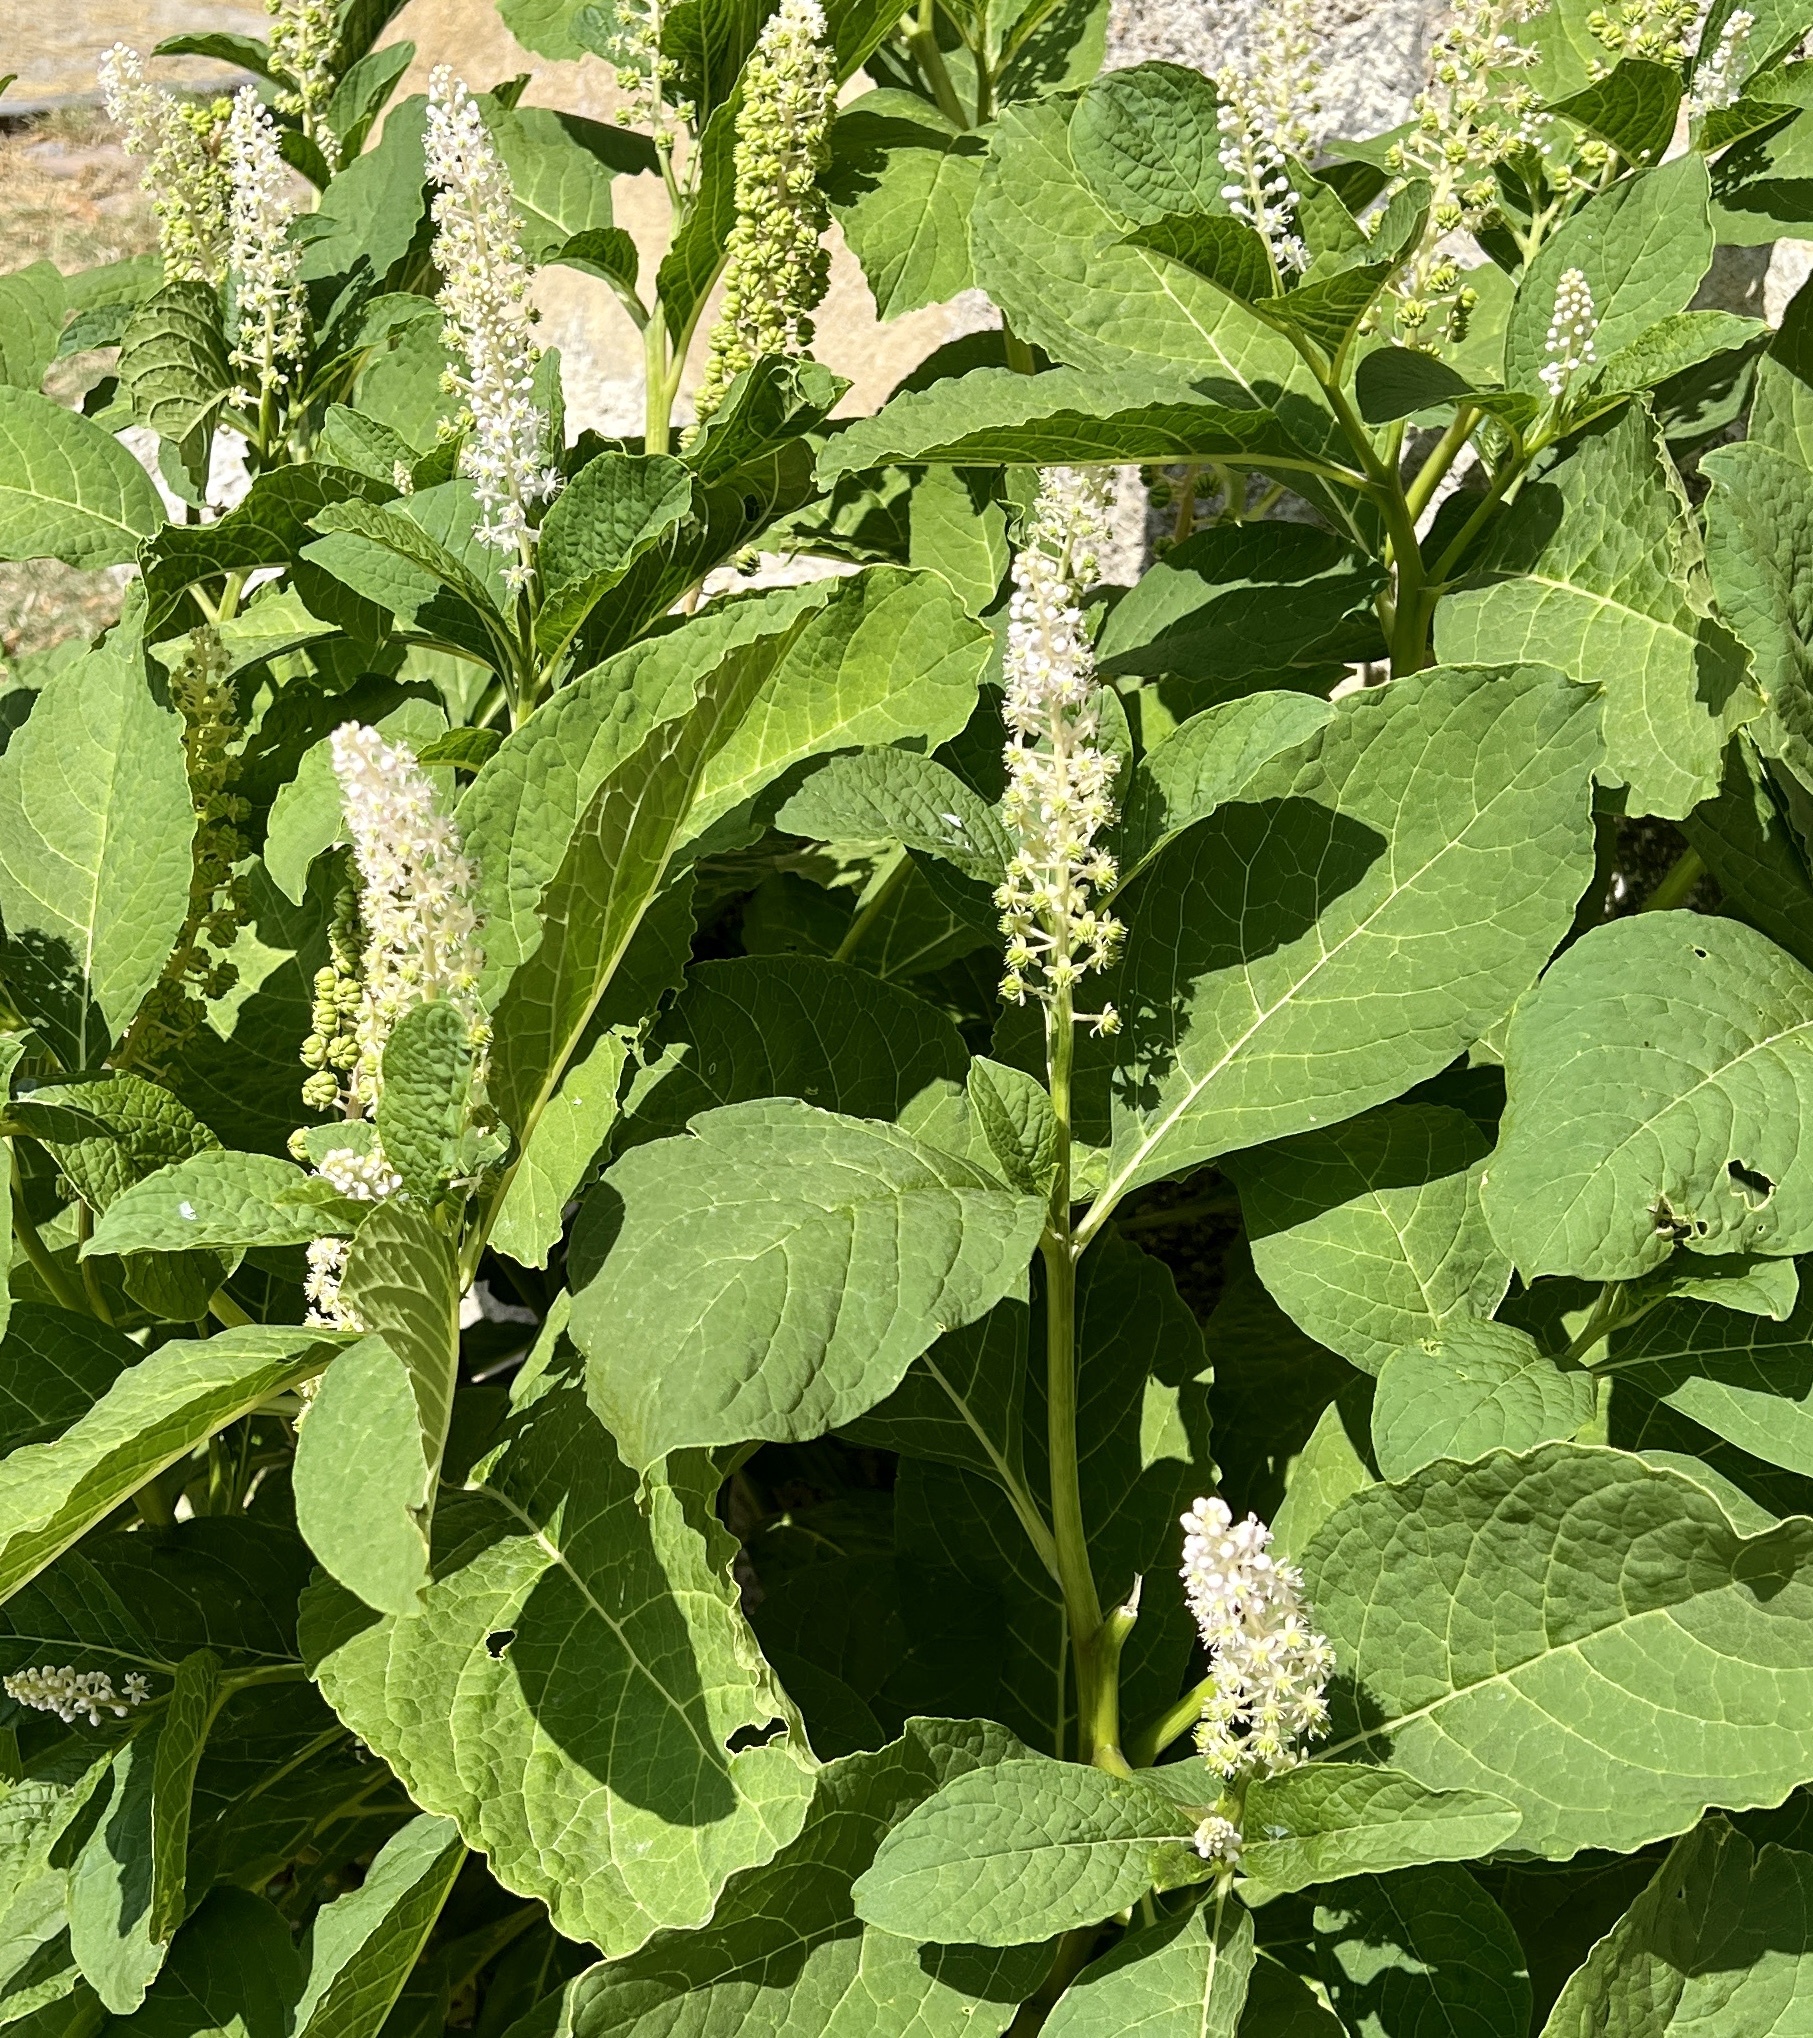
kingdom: Plantae
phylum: Tracheophyta
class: Magnoliopsida
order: Caryophyllales
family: Phytolaccaceae
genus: Phytolacca
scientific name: Phytolacca acinosa
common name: Indian pokeweed
